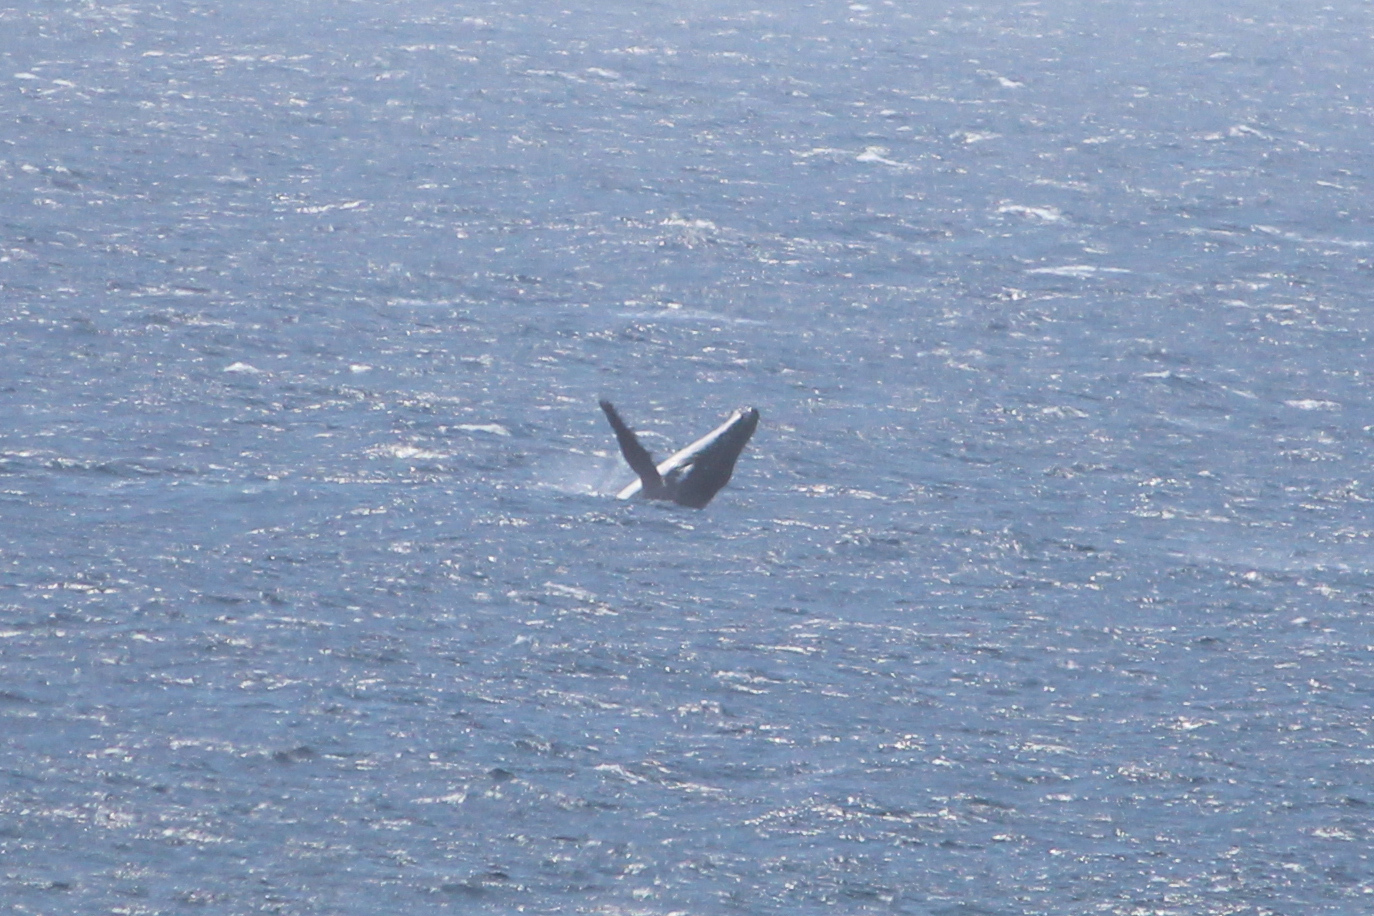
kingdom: Animalia
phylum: Chordata
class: Mammalia
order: Cetacea
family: Balaenopteridae
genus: Megaptera
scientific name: Megaptera novaeangliae
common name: Humpback whale
